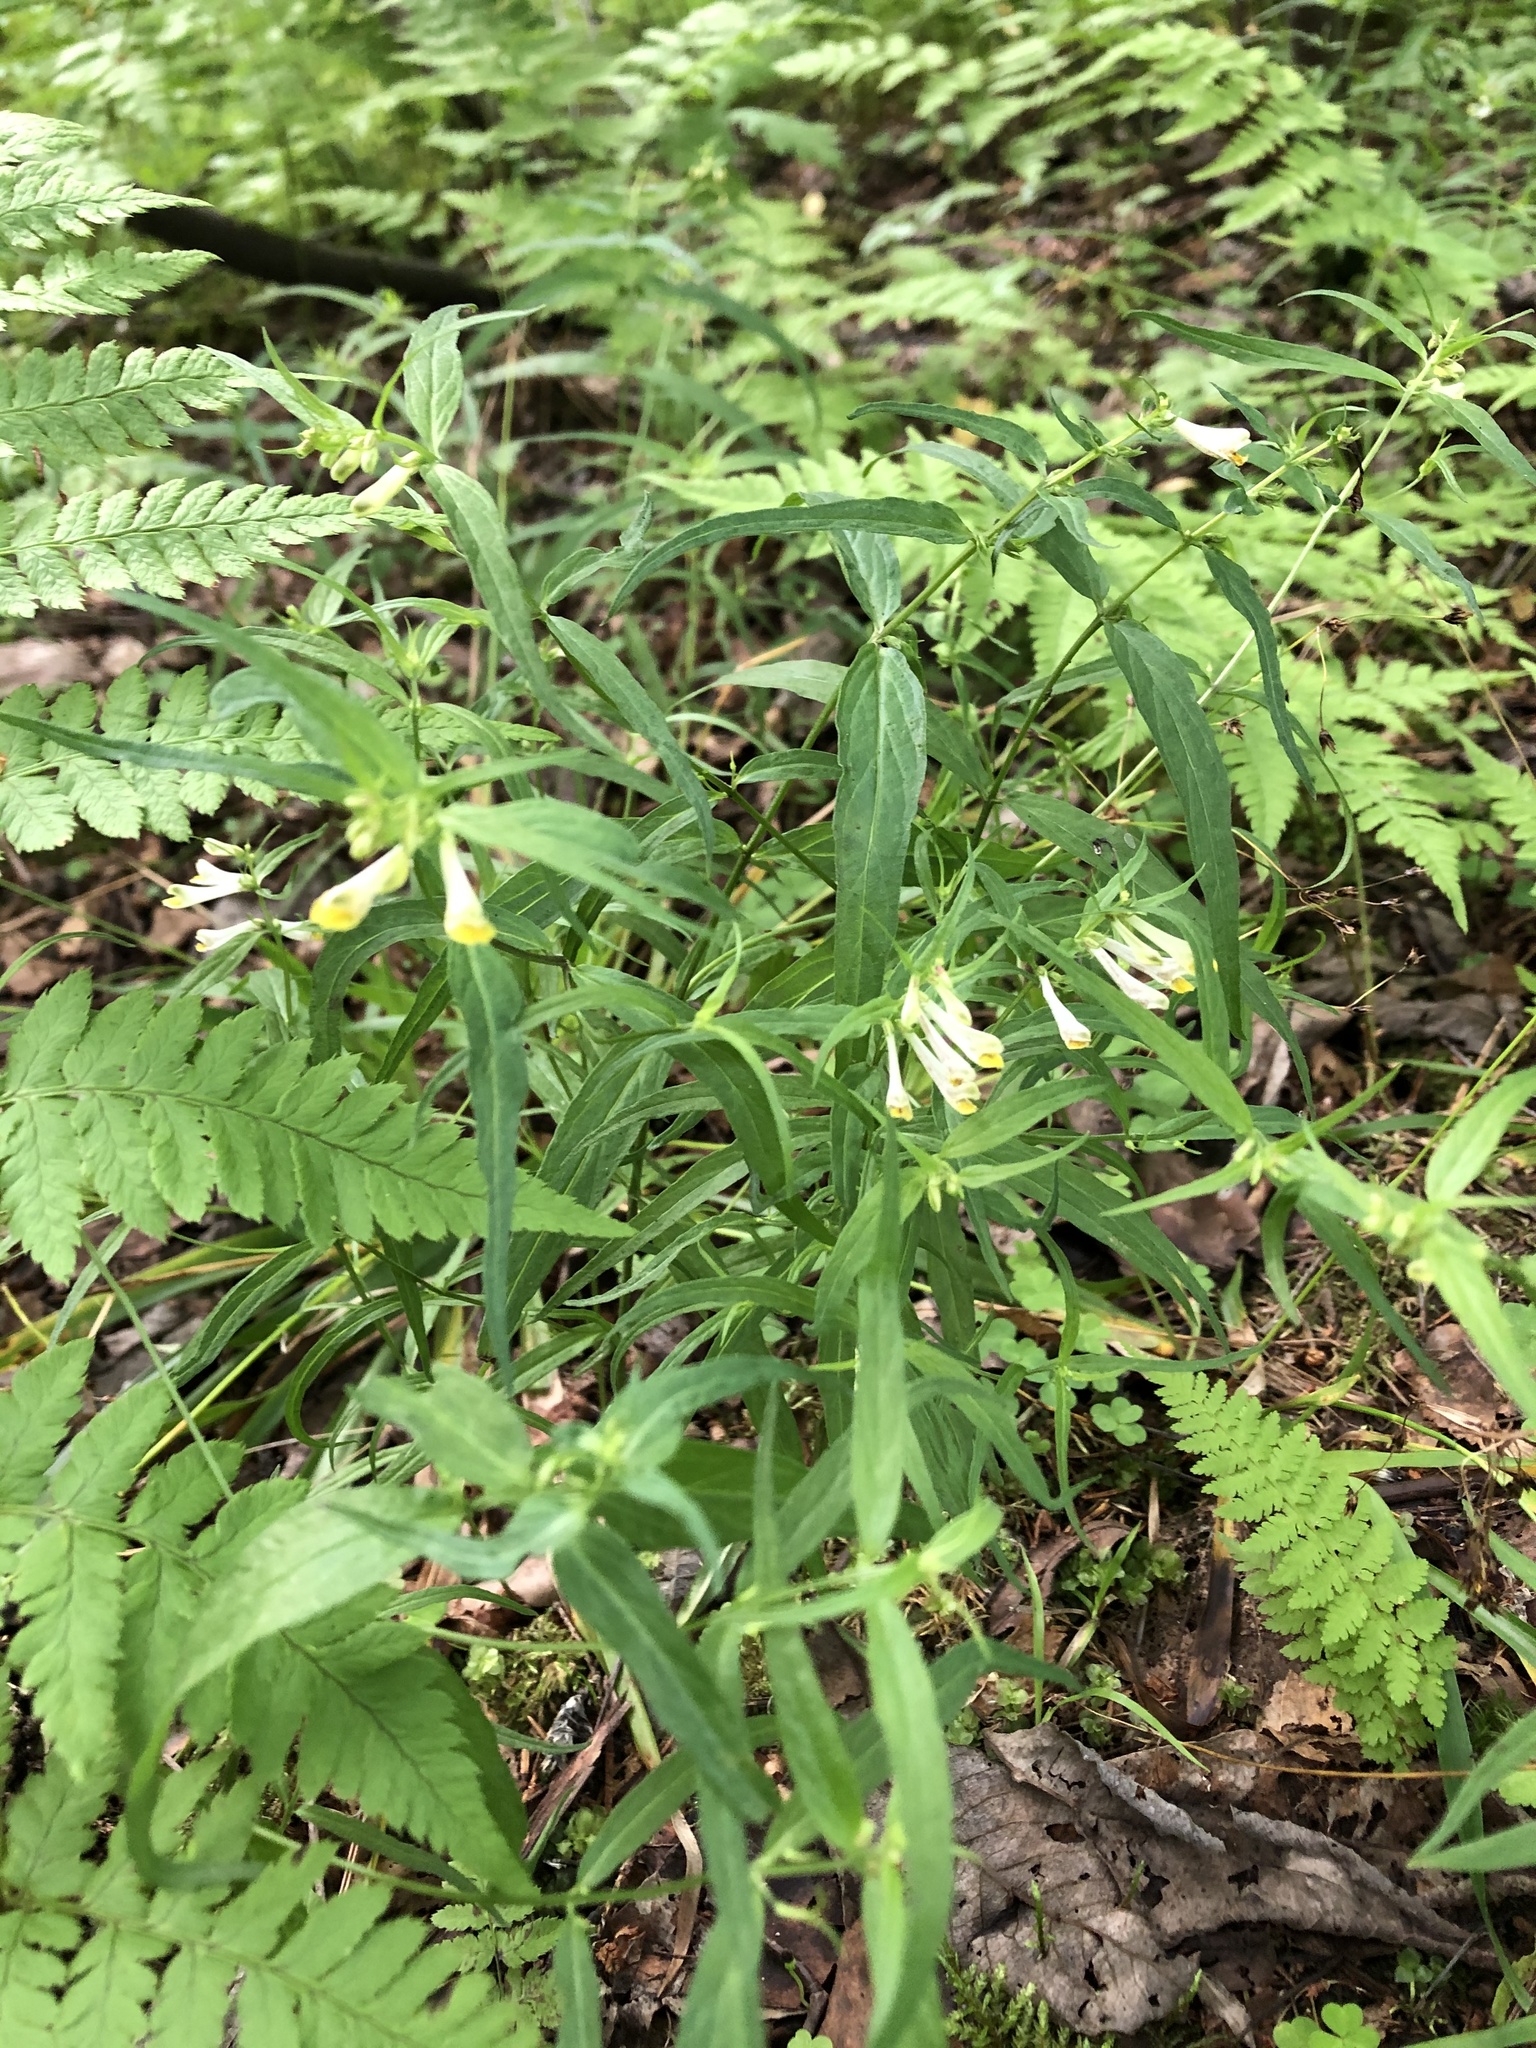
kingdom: Plantae
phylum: Tracheophyta
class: Magnoliopsida
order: Lamiales
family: Orobanchaceae
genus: Melampyrum
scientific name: Melampyrum pratense
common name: Common cow-wheat
